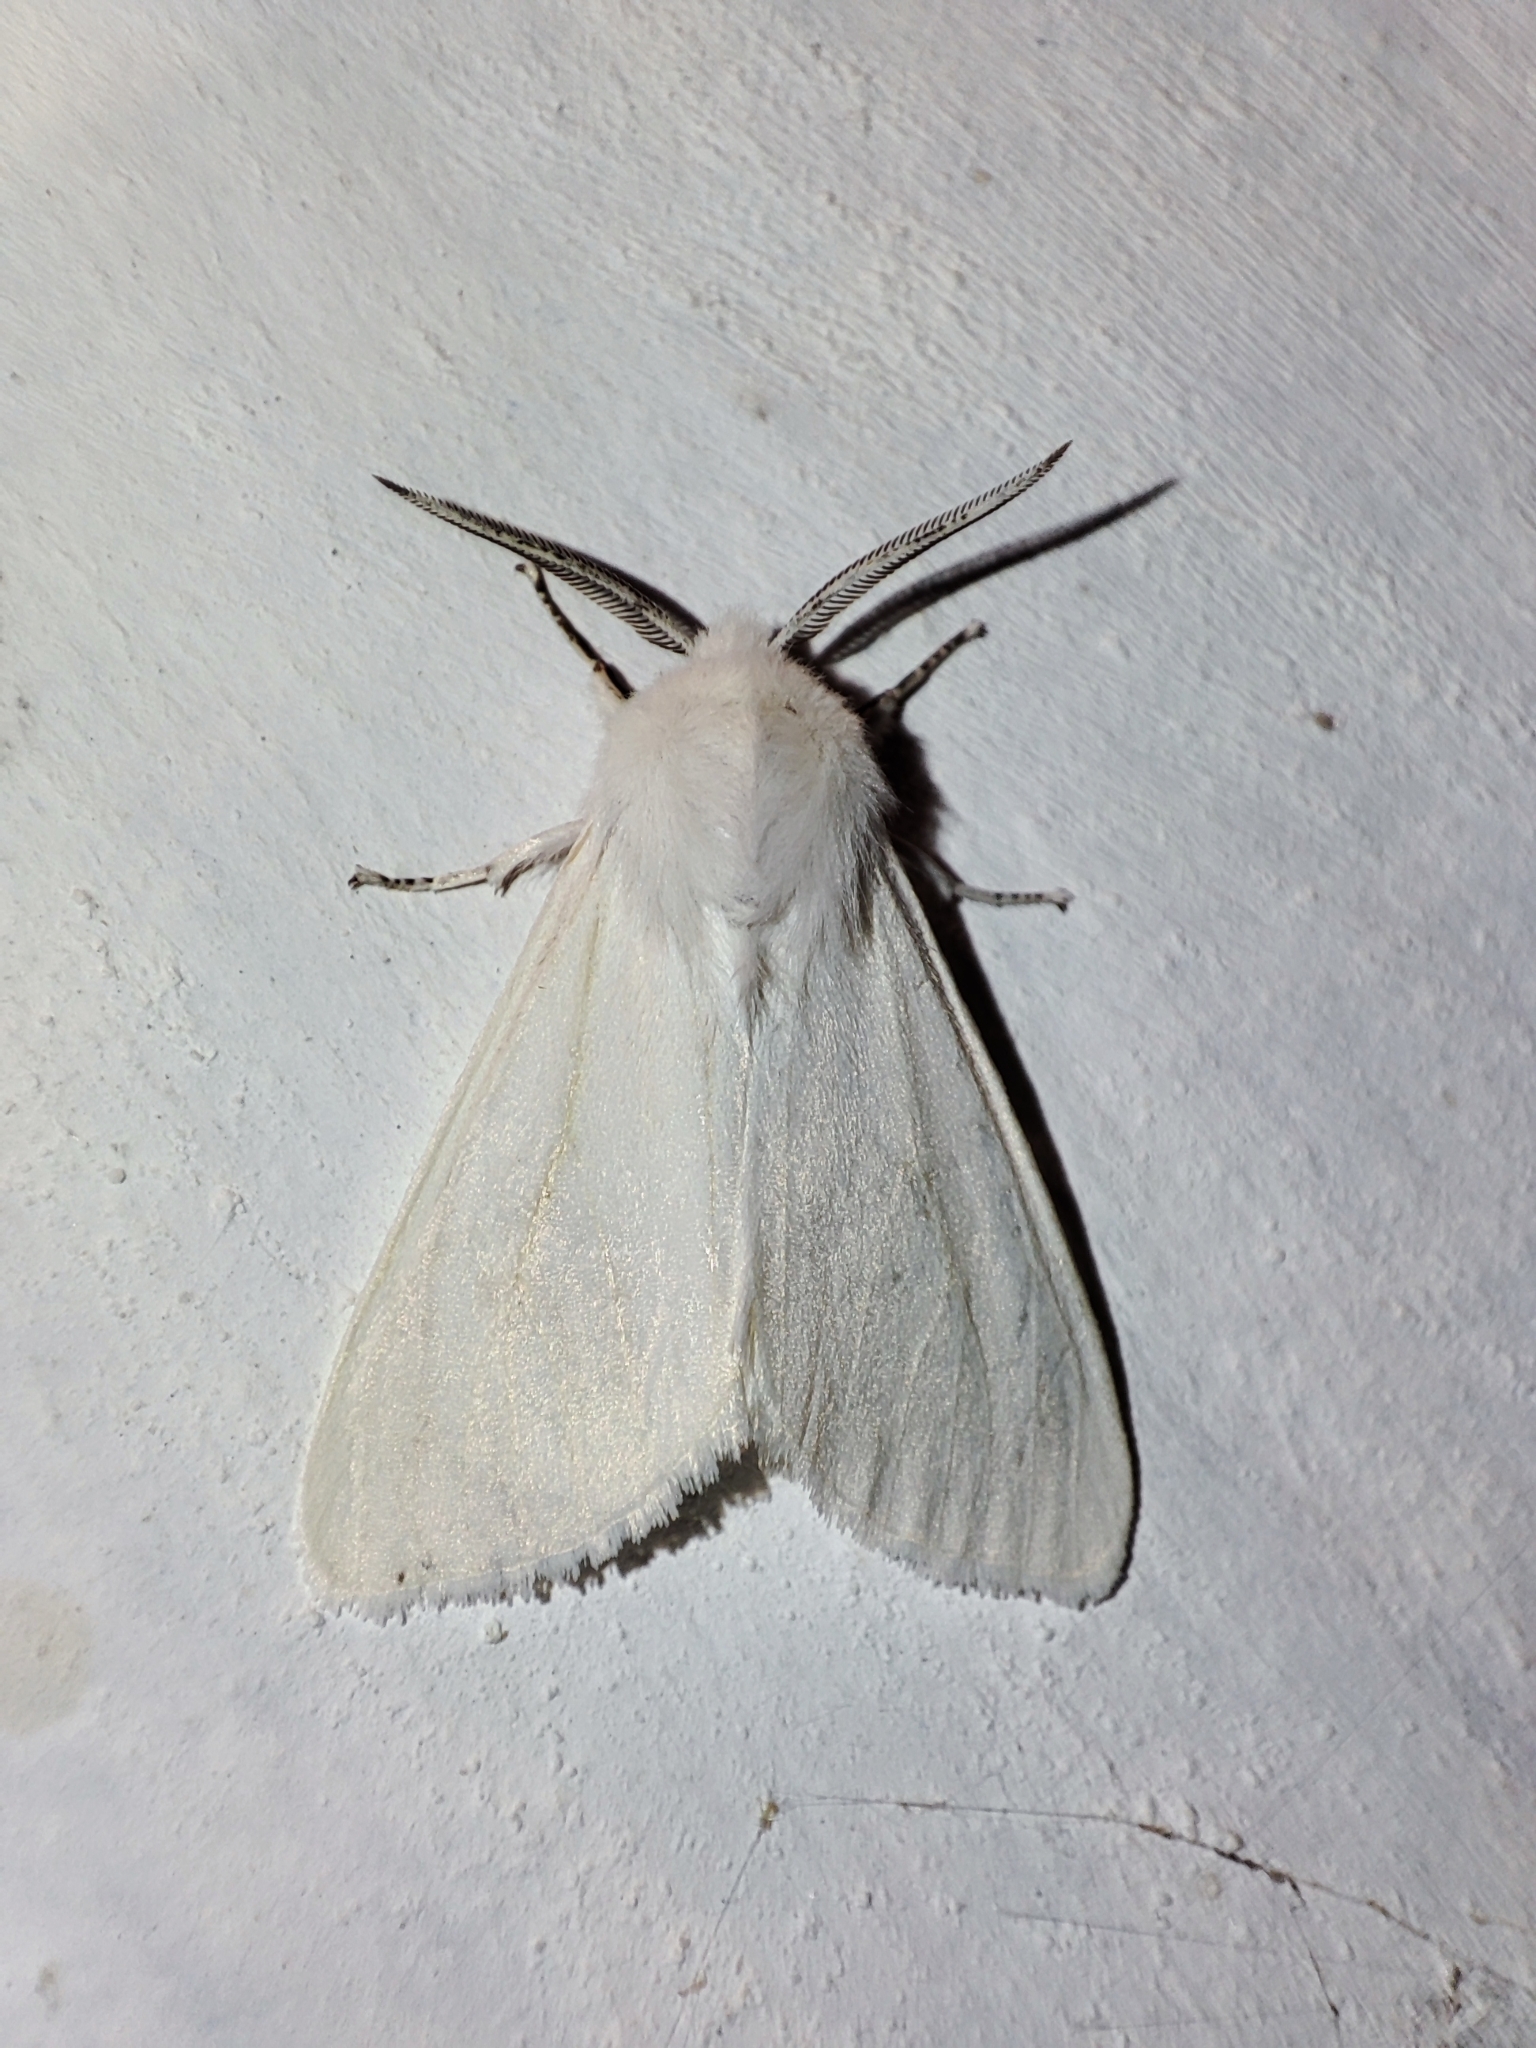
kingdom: Animalia
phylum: Arthropoda
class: Insecta
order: Lepidoptera
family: Erebidae
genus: Hyphantria
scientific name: Hyphantria cunea
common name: American white moth
